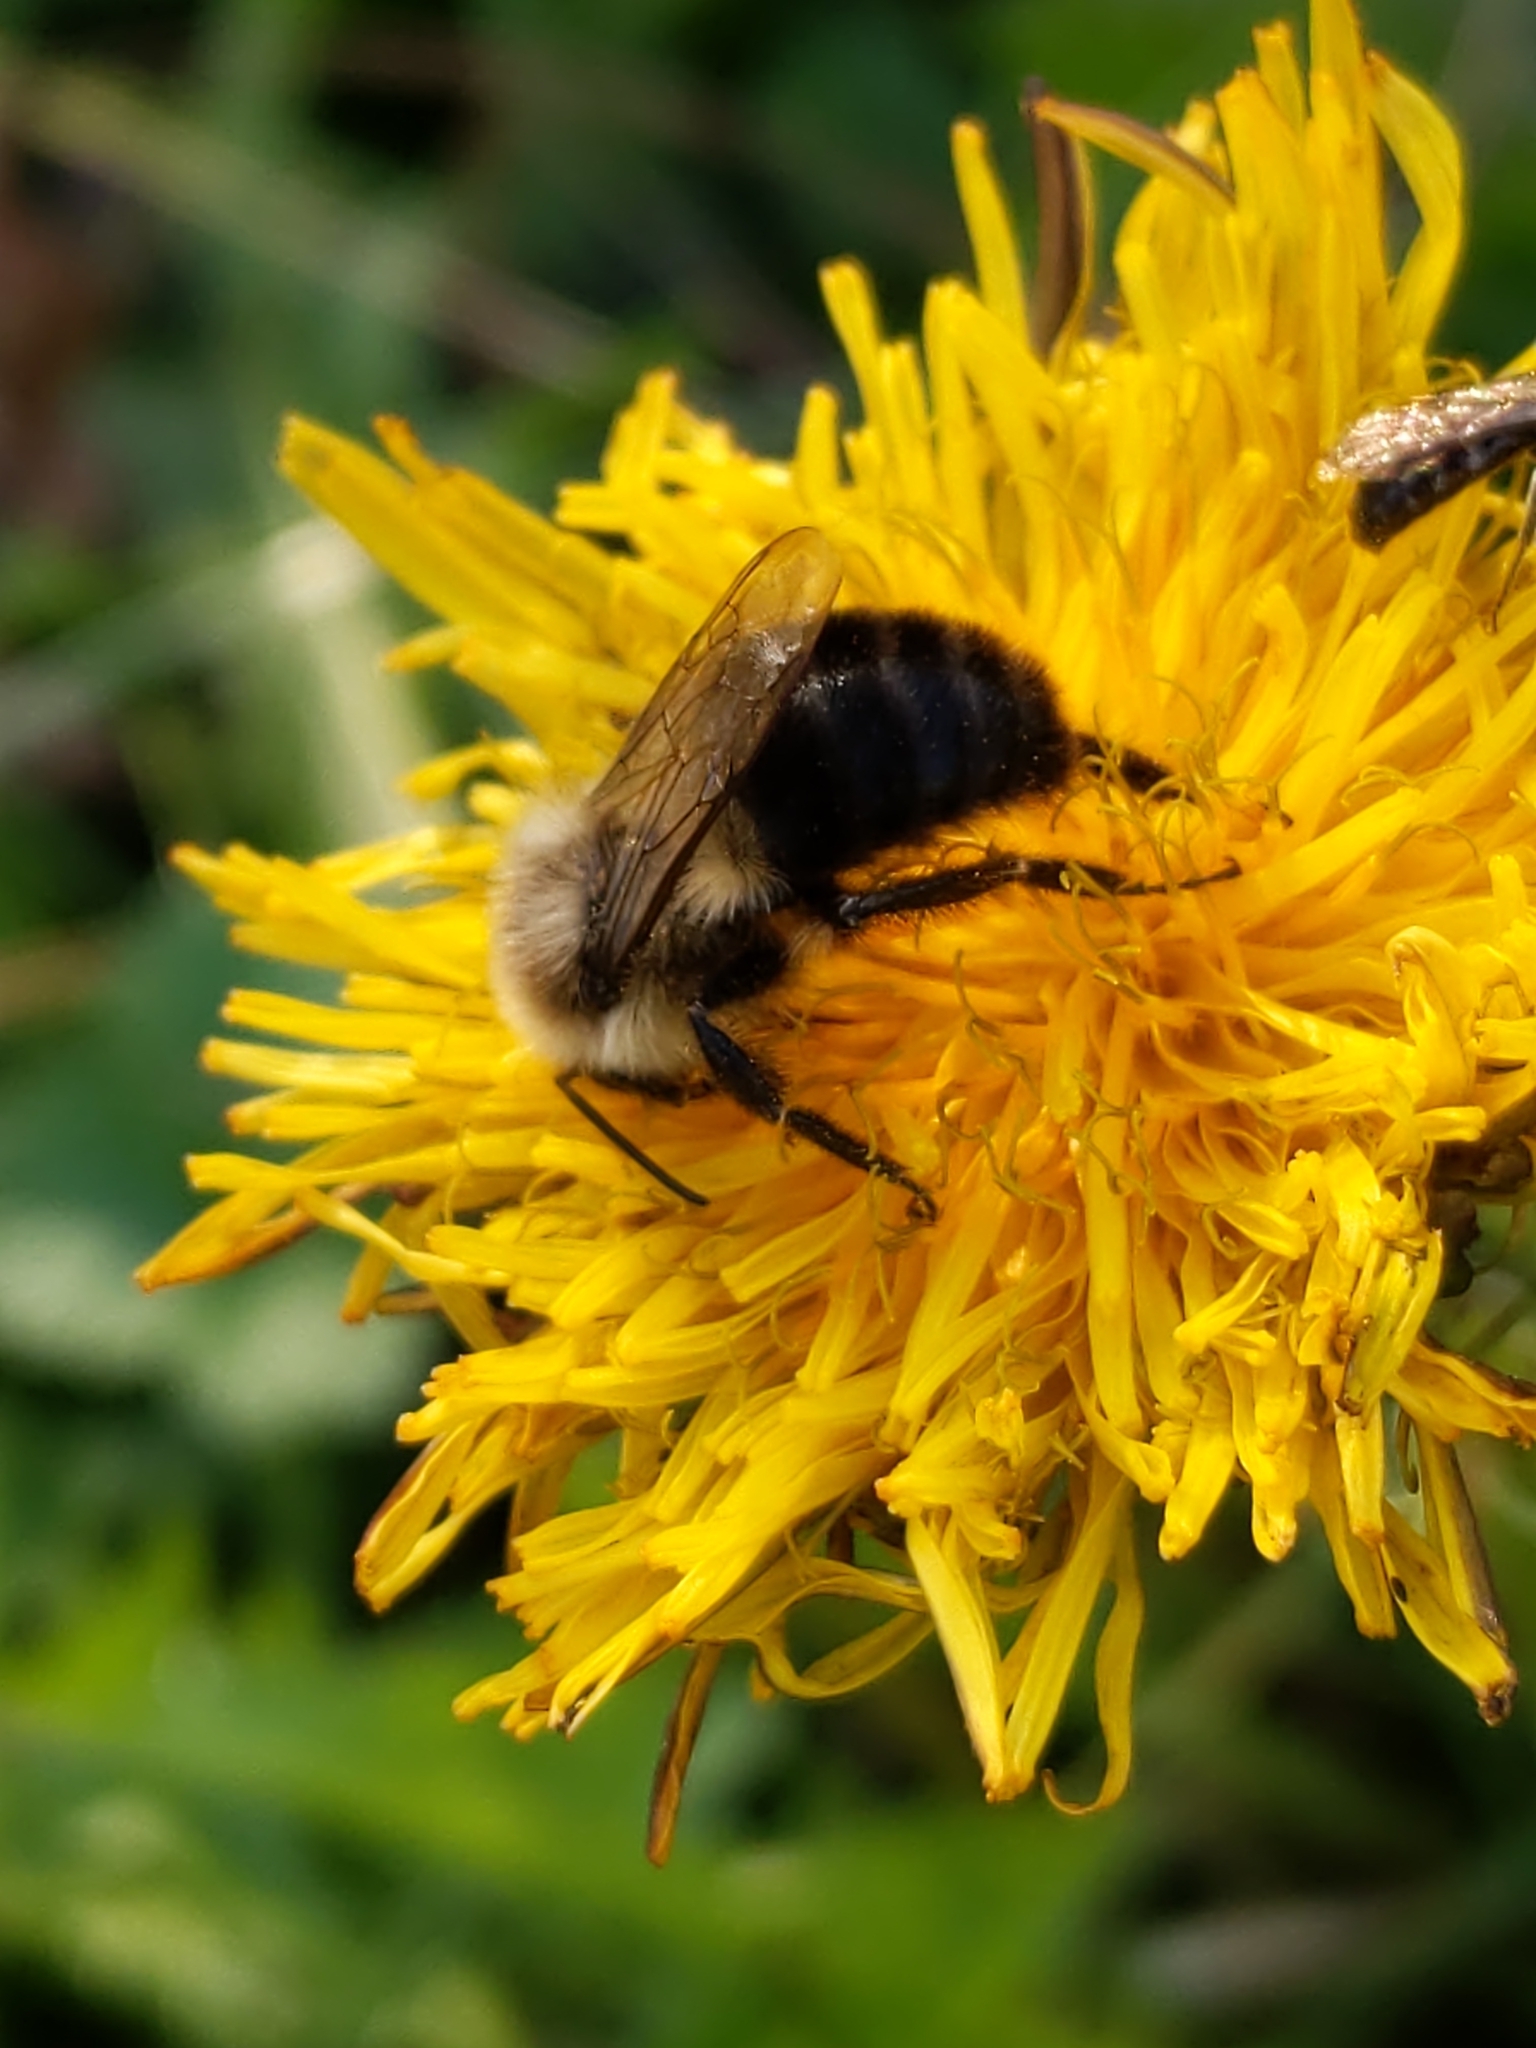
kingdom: Animalia
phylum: Arthropoda
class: Insecta
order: Hymenoptera
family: Apidae
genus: Bombus
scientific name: Bombus impatiens
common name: Common eastern bumble bee
